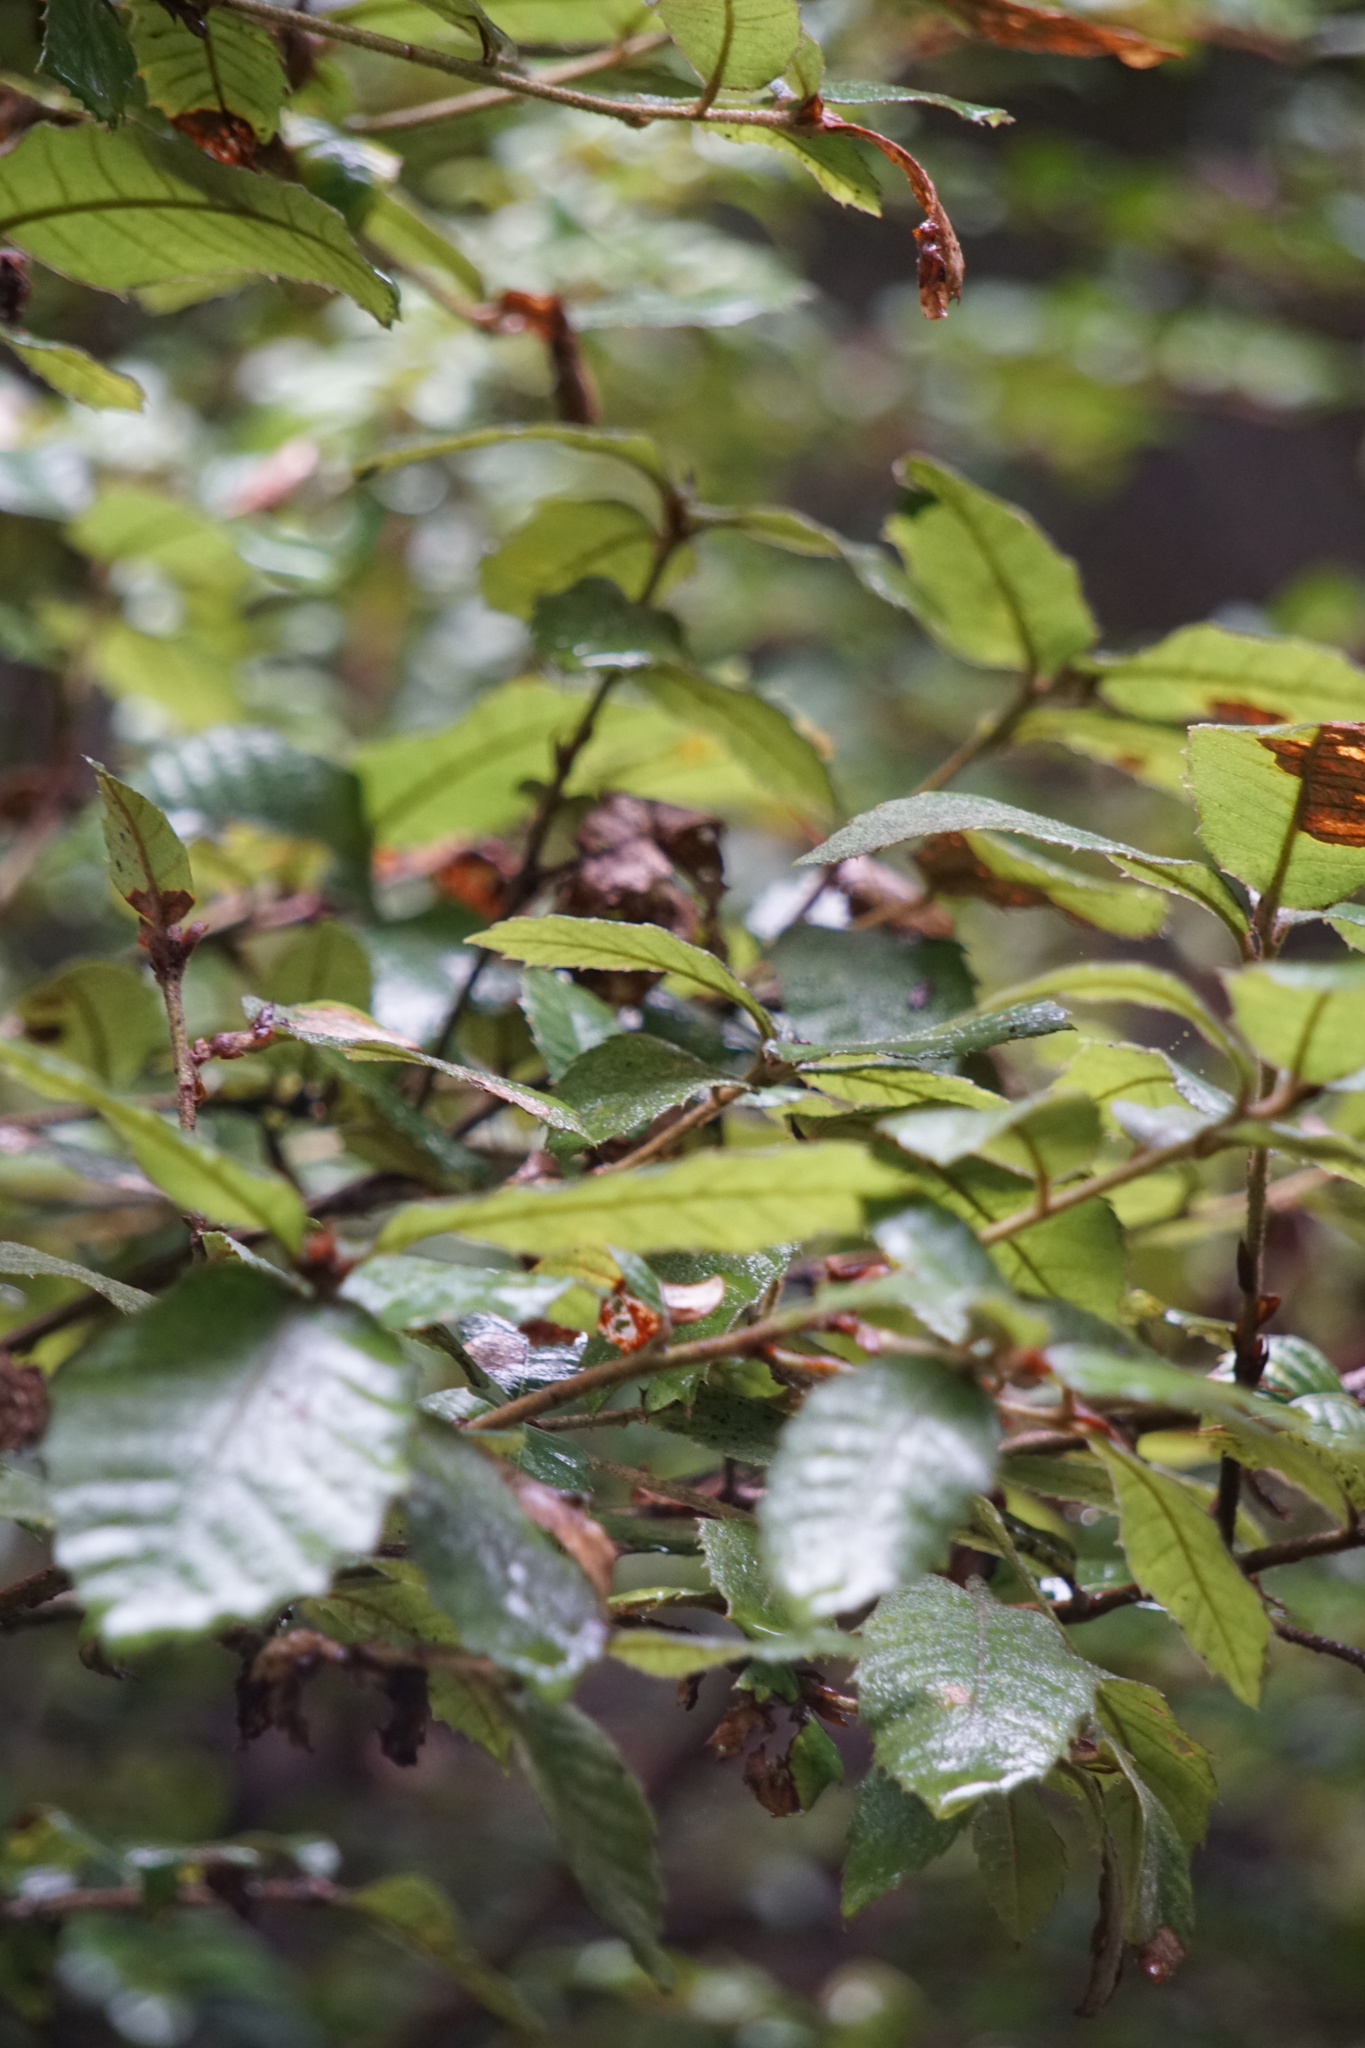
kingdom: Plantae
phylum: Tracheophyta
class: Magnoliopsida
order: Fagales
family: Fagaceae
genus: Notholithocarpus
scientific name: Notholithocarpus densiflorus
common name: Tan bark oak
